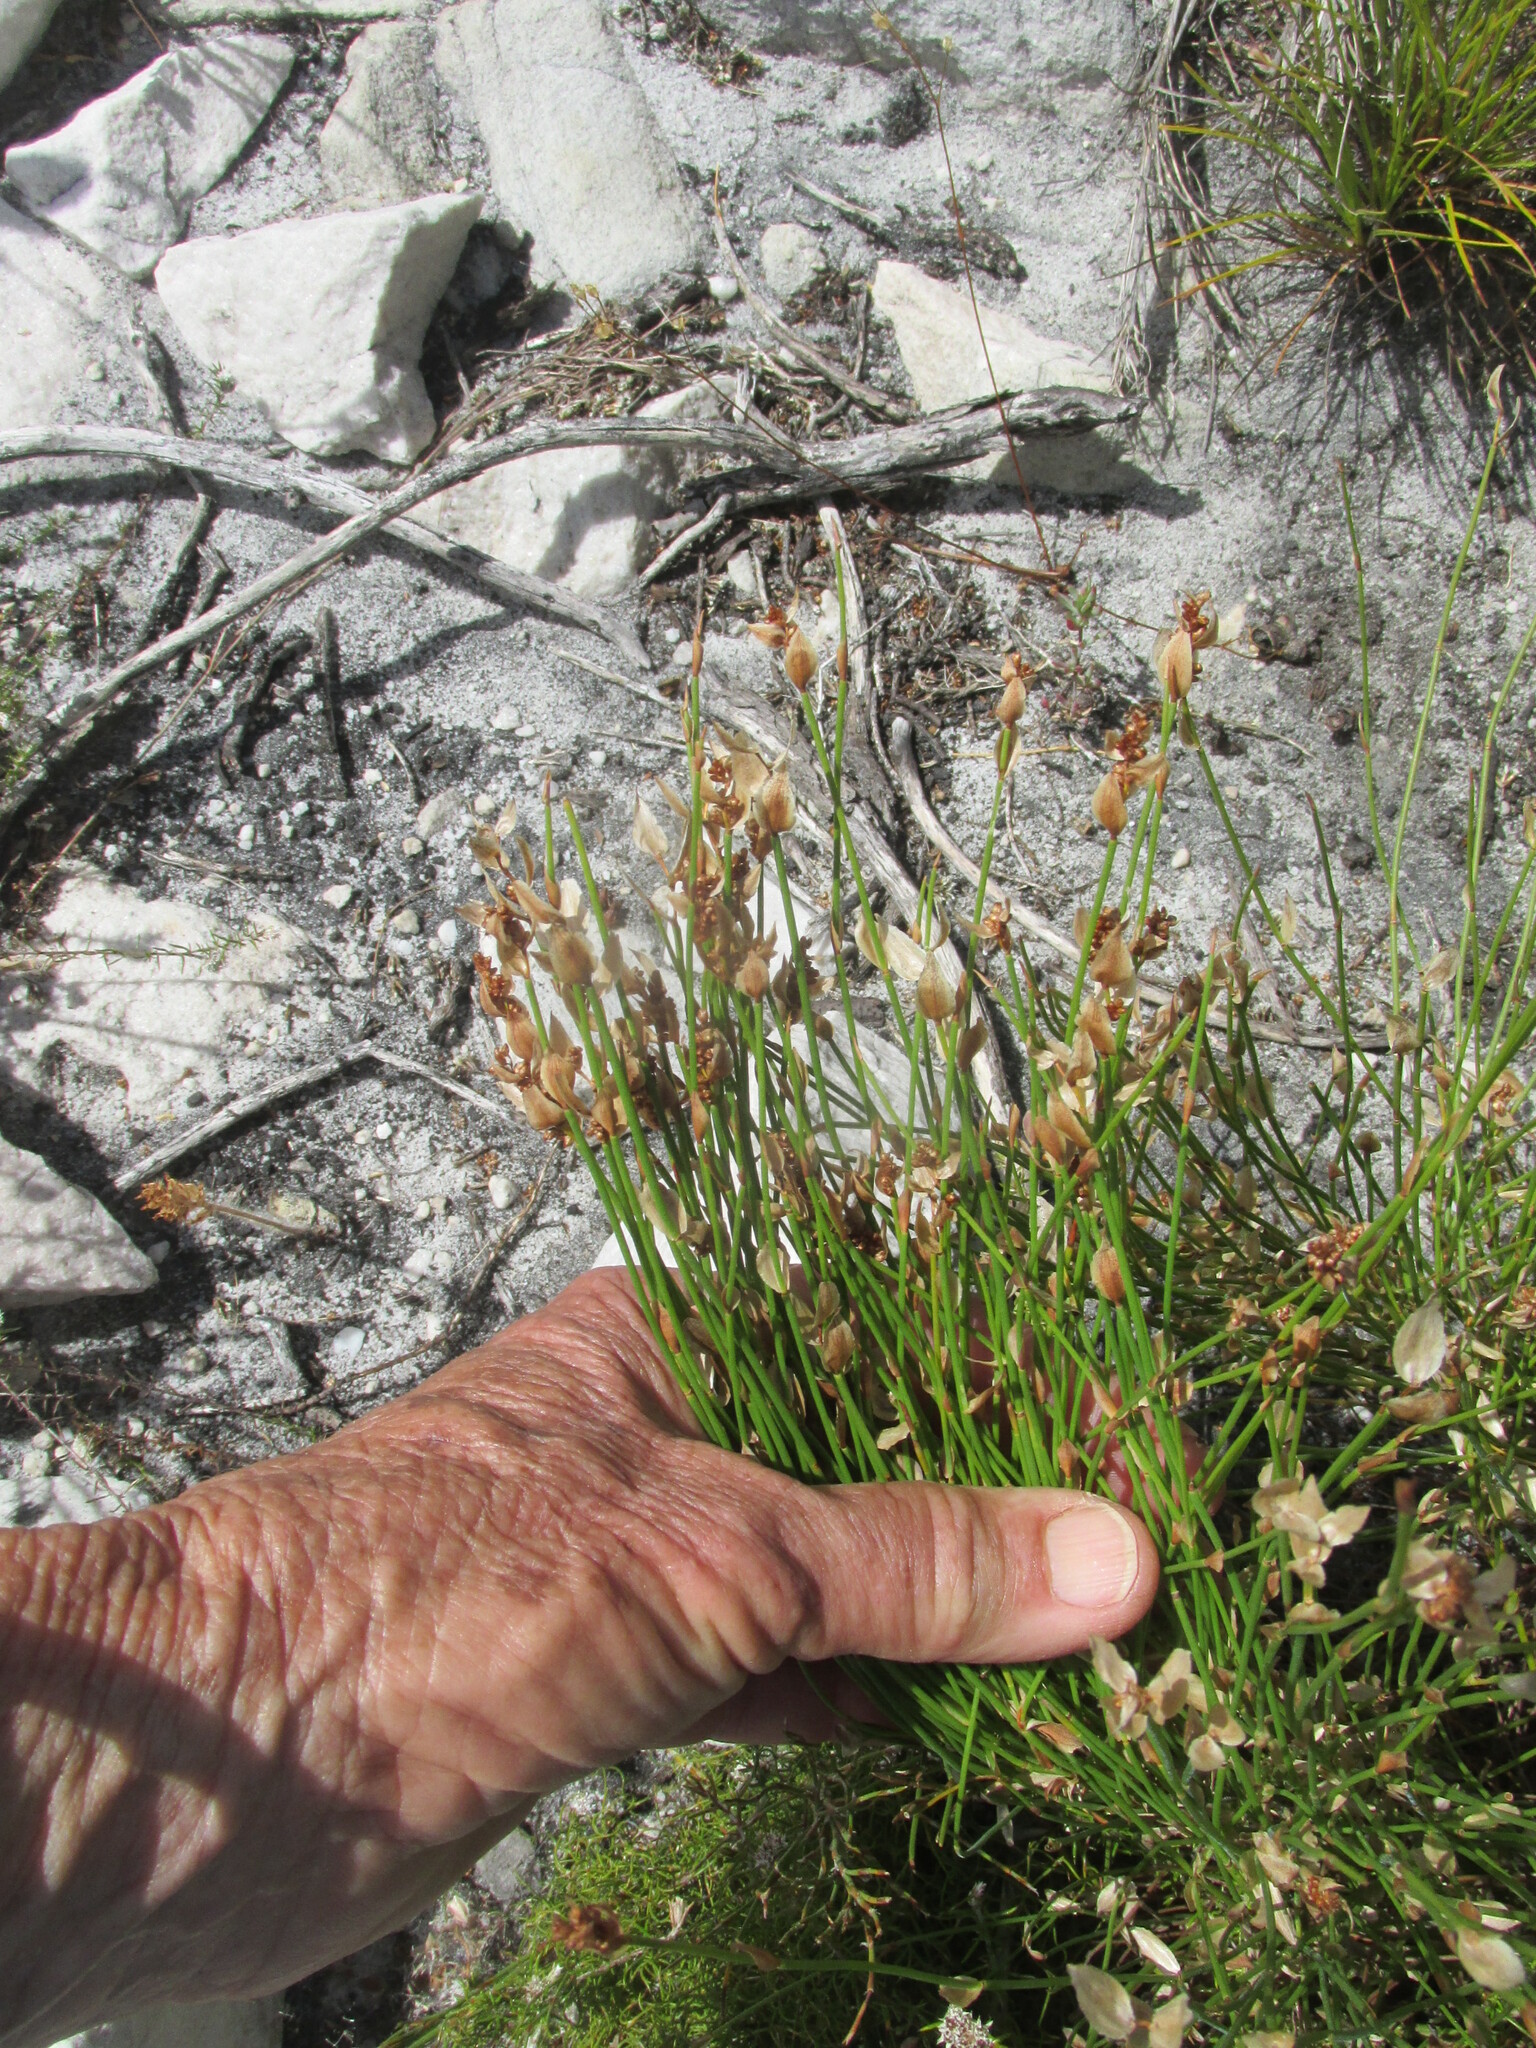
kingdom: Plantae
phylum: Tracheophyta
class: Liliopsida
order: Poales
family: Restionaceae
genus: Elegia
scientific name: Elegia filacea
